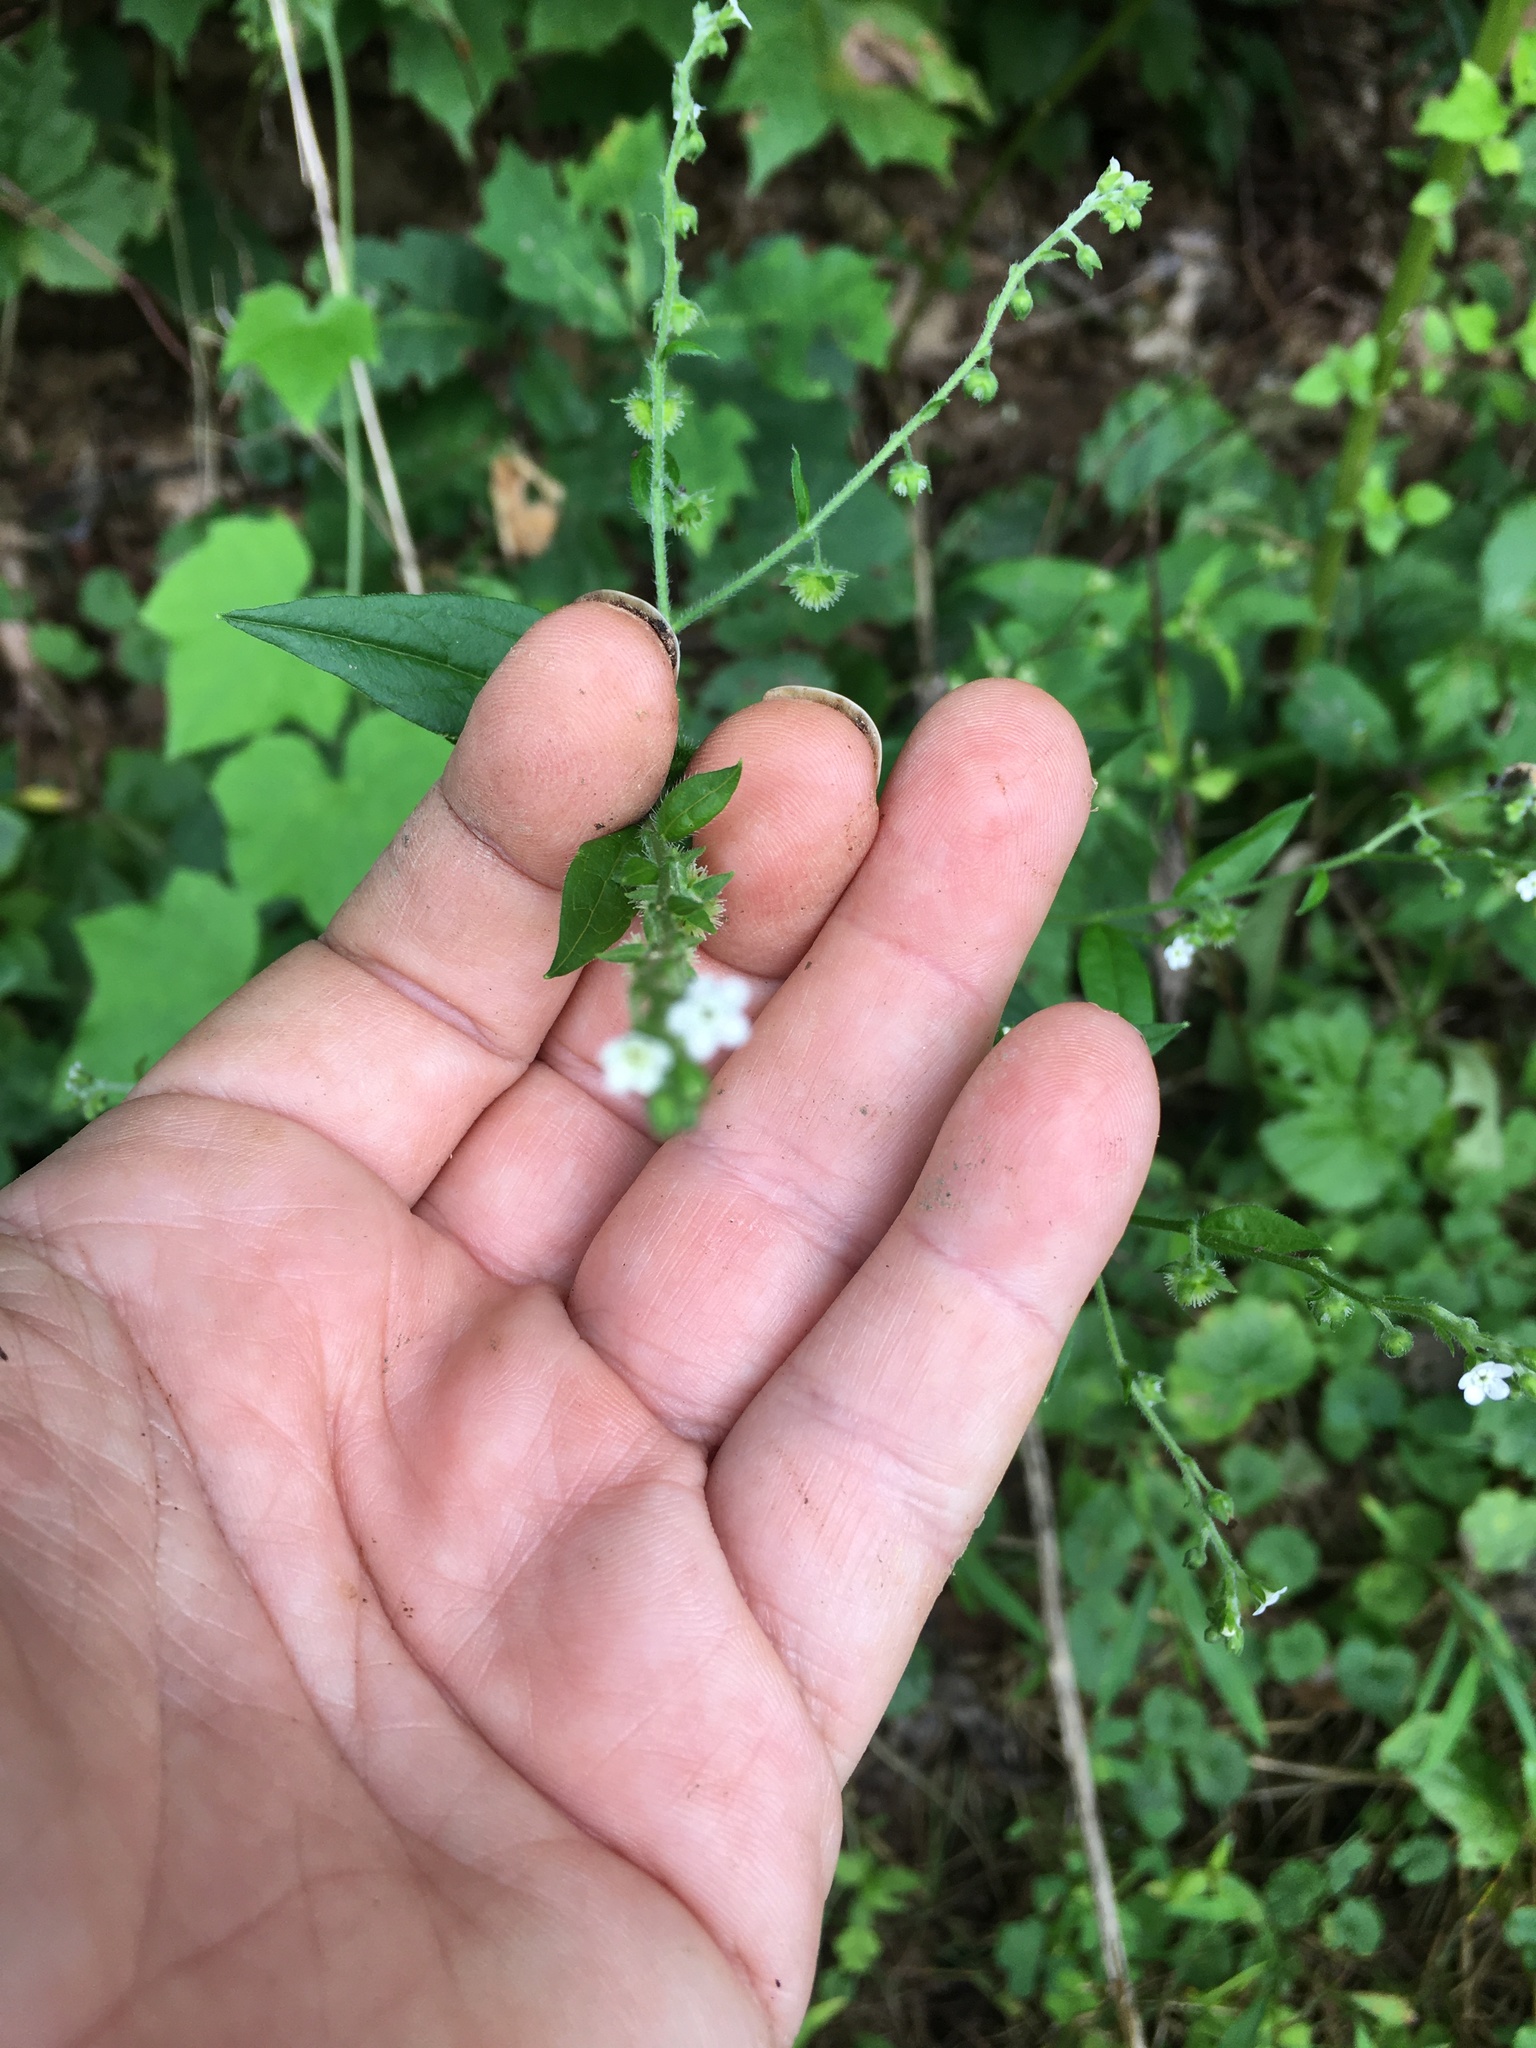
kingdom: Plantae
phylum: Tracheophyta
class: Magnoliopsida
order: Boraginales
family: Boraginaceae
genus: Hackelia
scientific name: Hackelia virginiana
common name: Beggar's-lice
